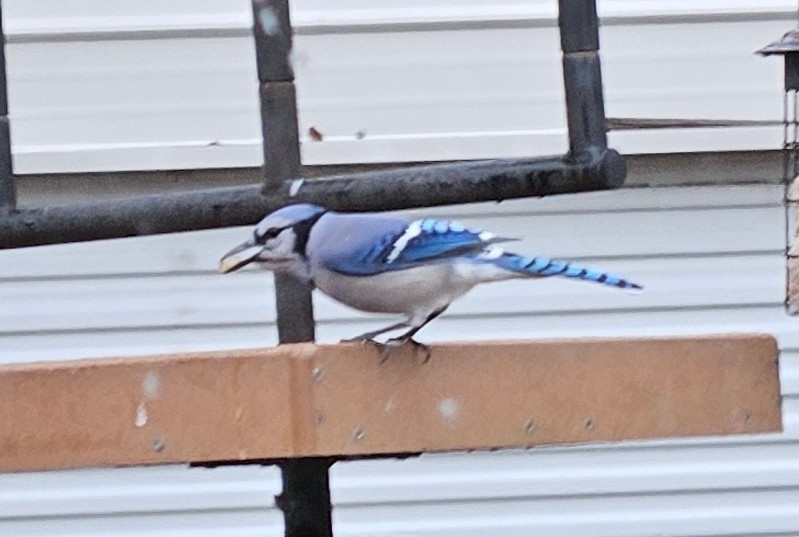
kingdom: Animalia
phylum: Chordata
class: Aves
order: Passeriformes
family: Corvidae
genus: Cyanocitta
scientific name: Cyanocitta cristata
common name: Blue jay
